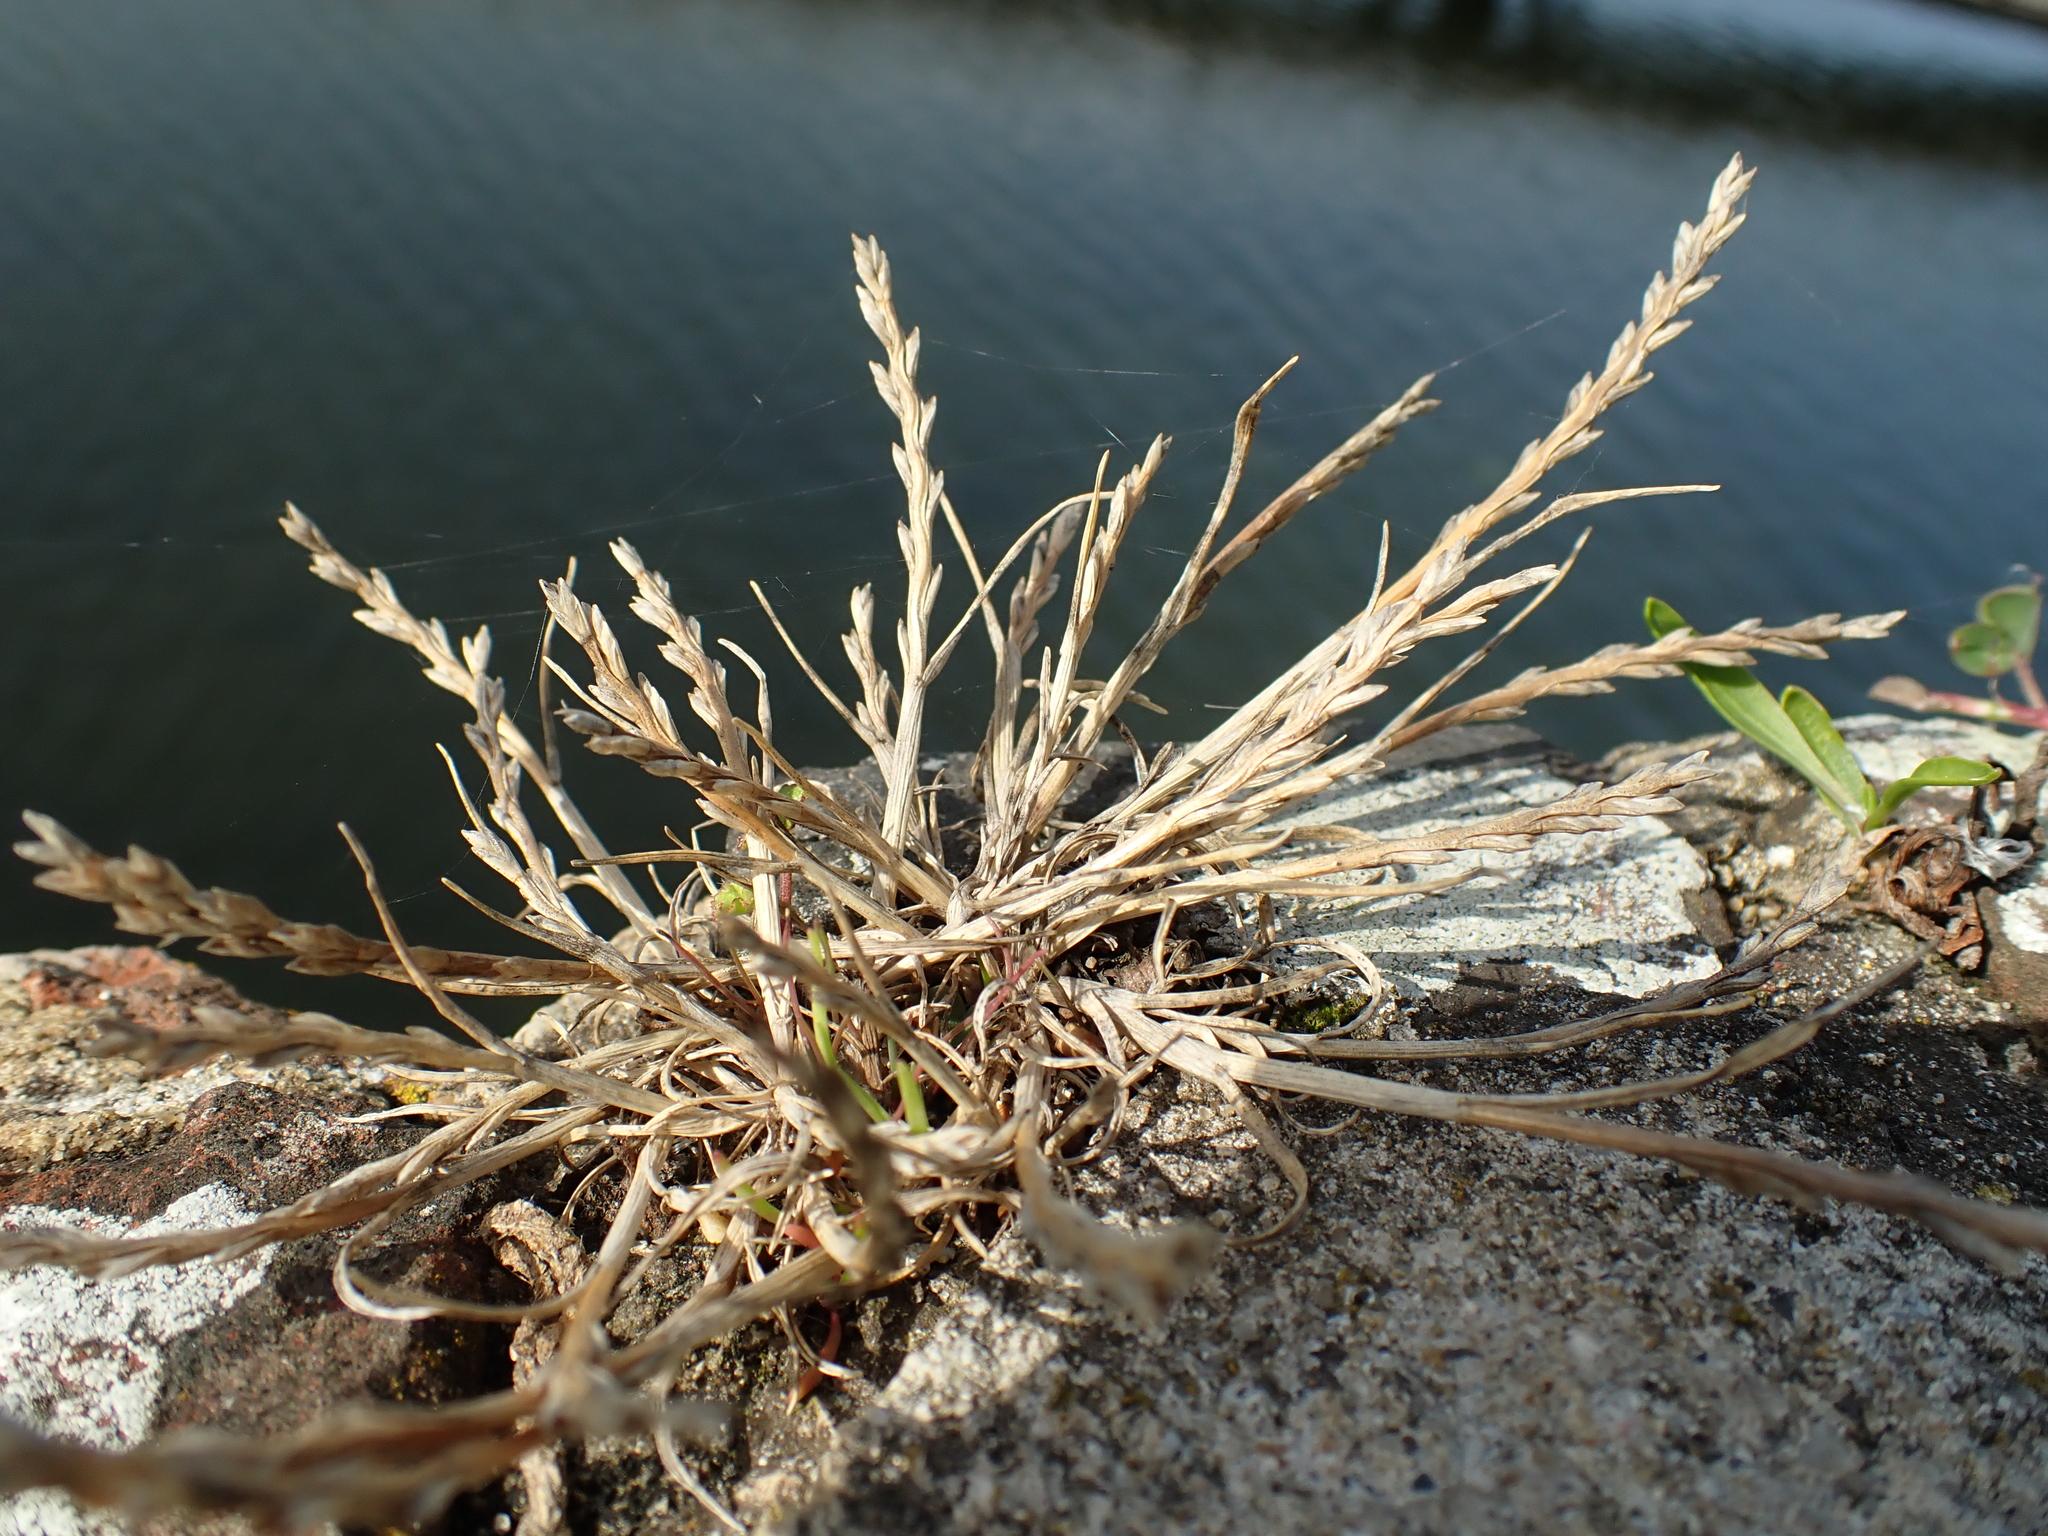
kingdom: Plantae
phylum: Tracheophyta
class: Liliopsida
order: Poales
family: Poaceae
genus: Catapodium
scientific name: Catapodium marinum
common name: Sea fern-grass
